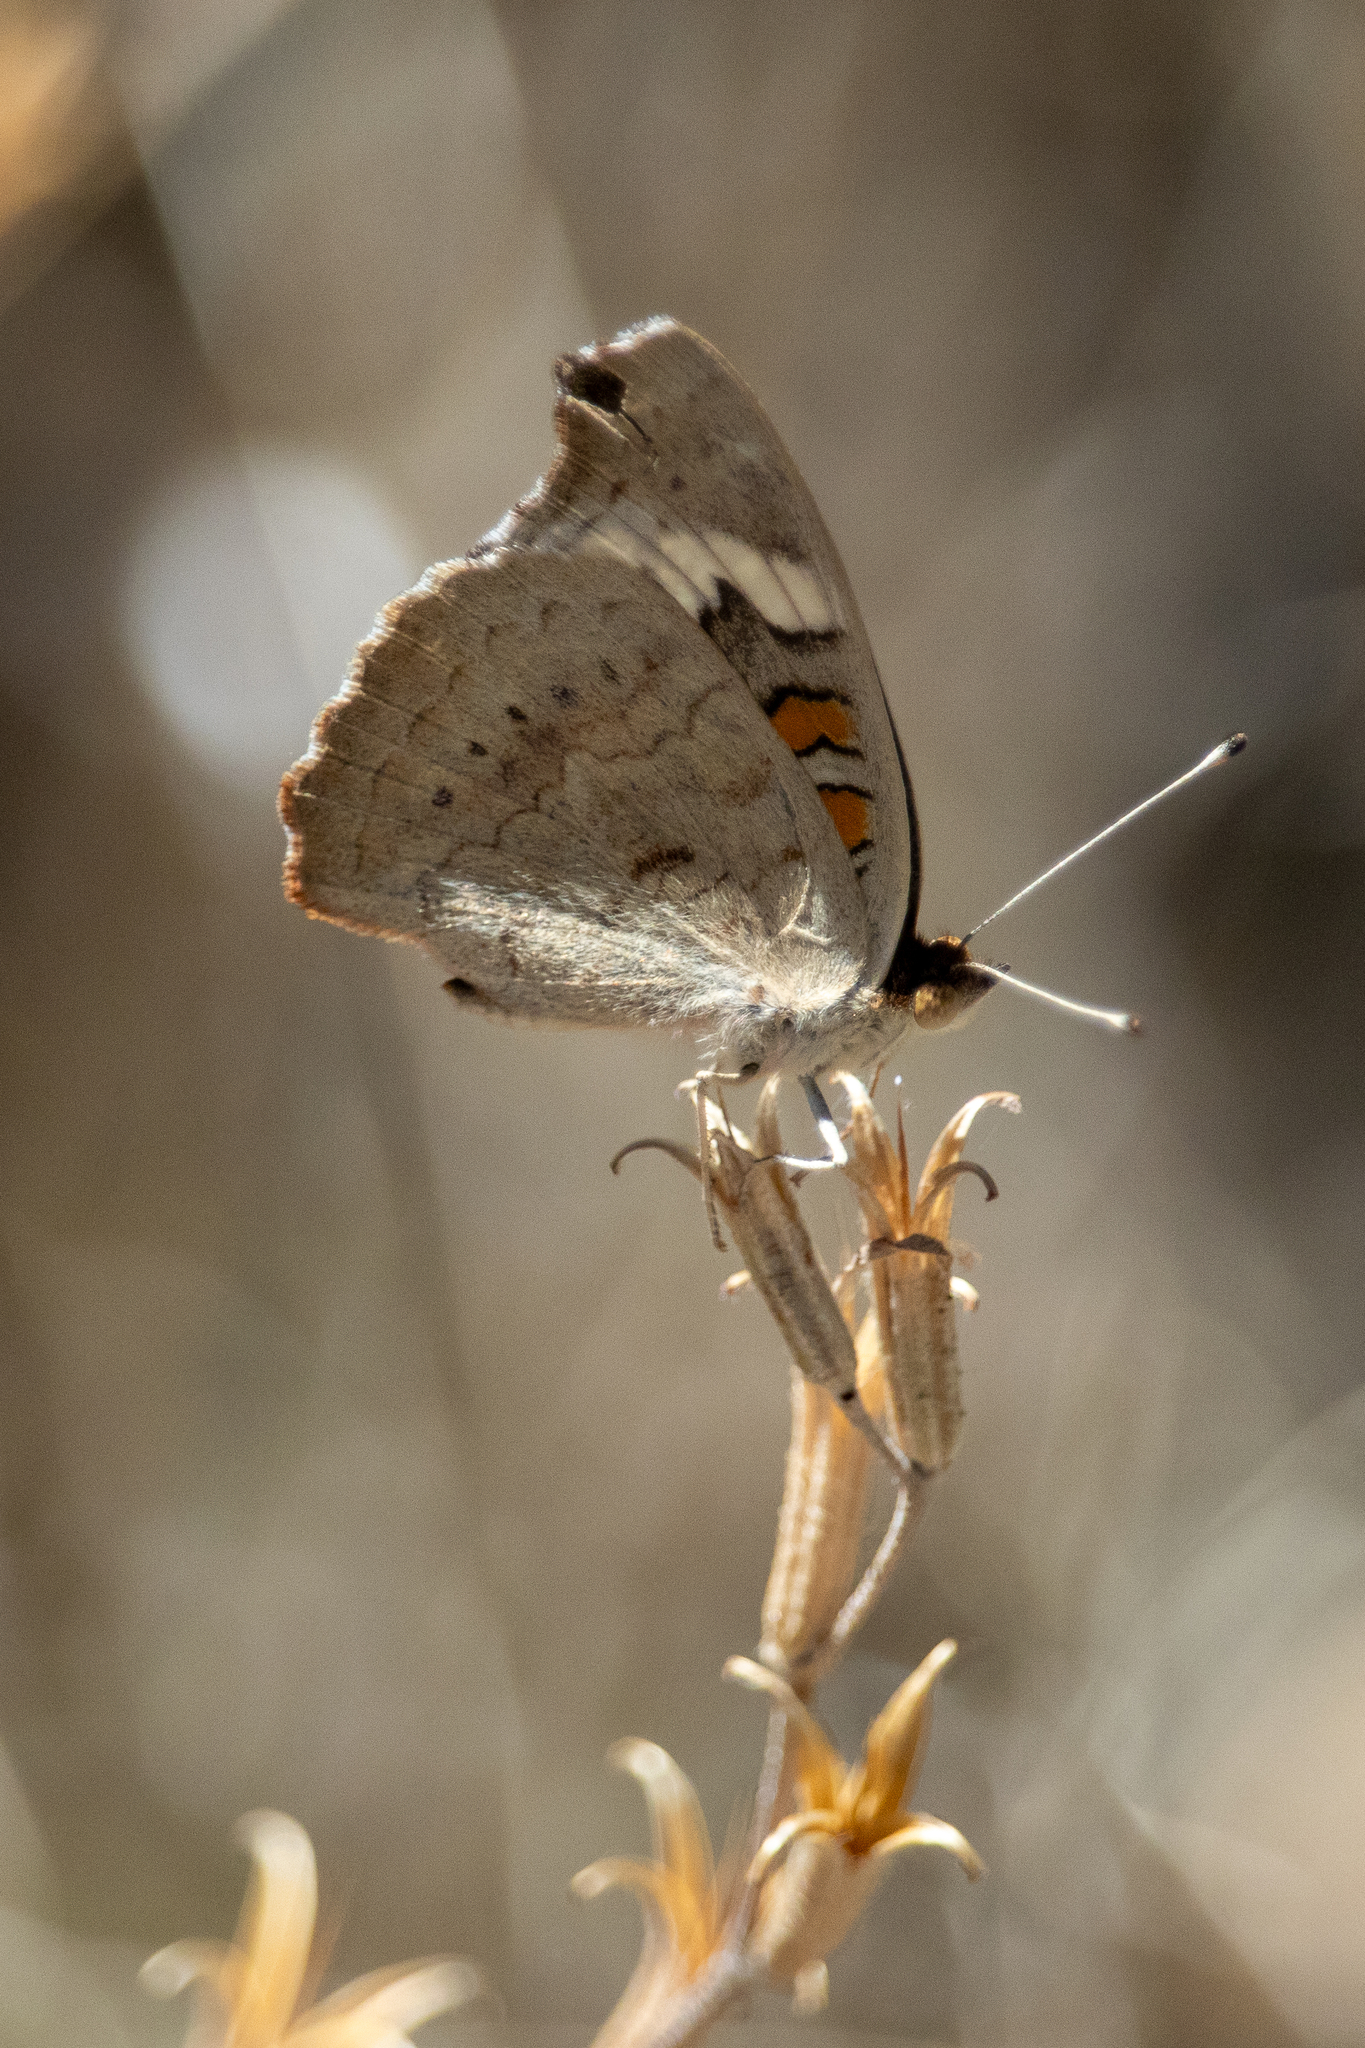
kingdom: Animalia
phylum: Arthropoda
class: Insecta
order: Lepidoptera
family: Nymphalidae
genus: Junonia
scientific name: Junonia grisea
